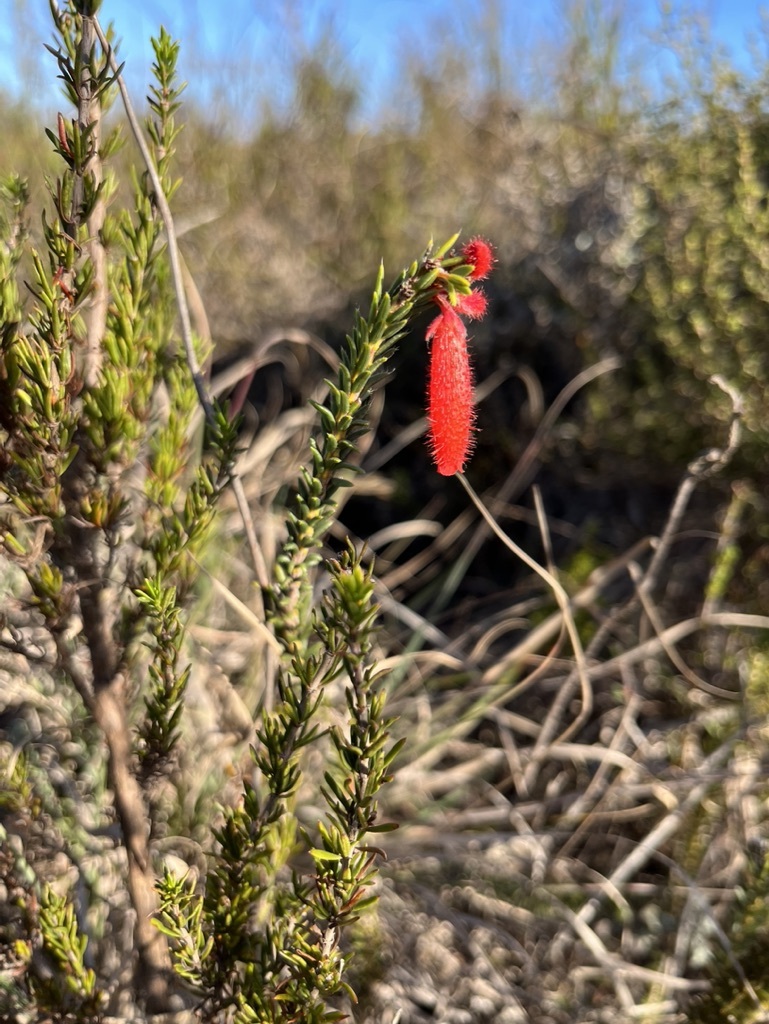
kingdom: Plantae
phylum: Tracheophyta
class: Magnoliopsida
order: Ericales
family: Ericaceae
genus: Erica
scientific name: Erica cerinthoides
